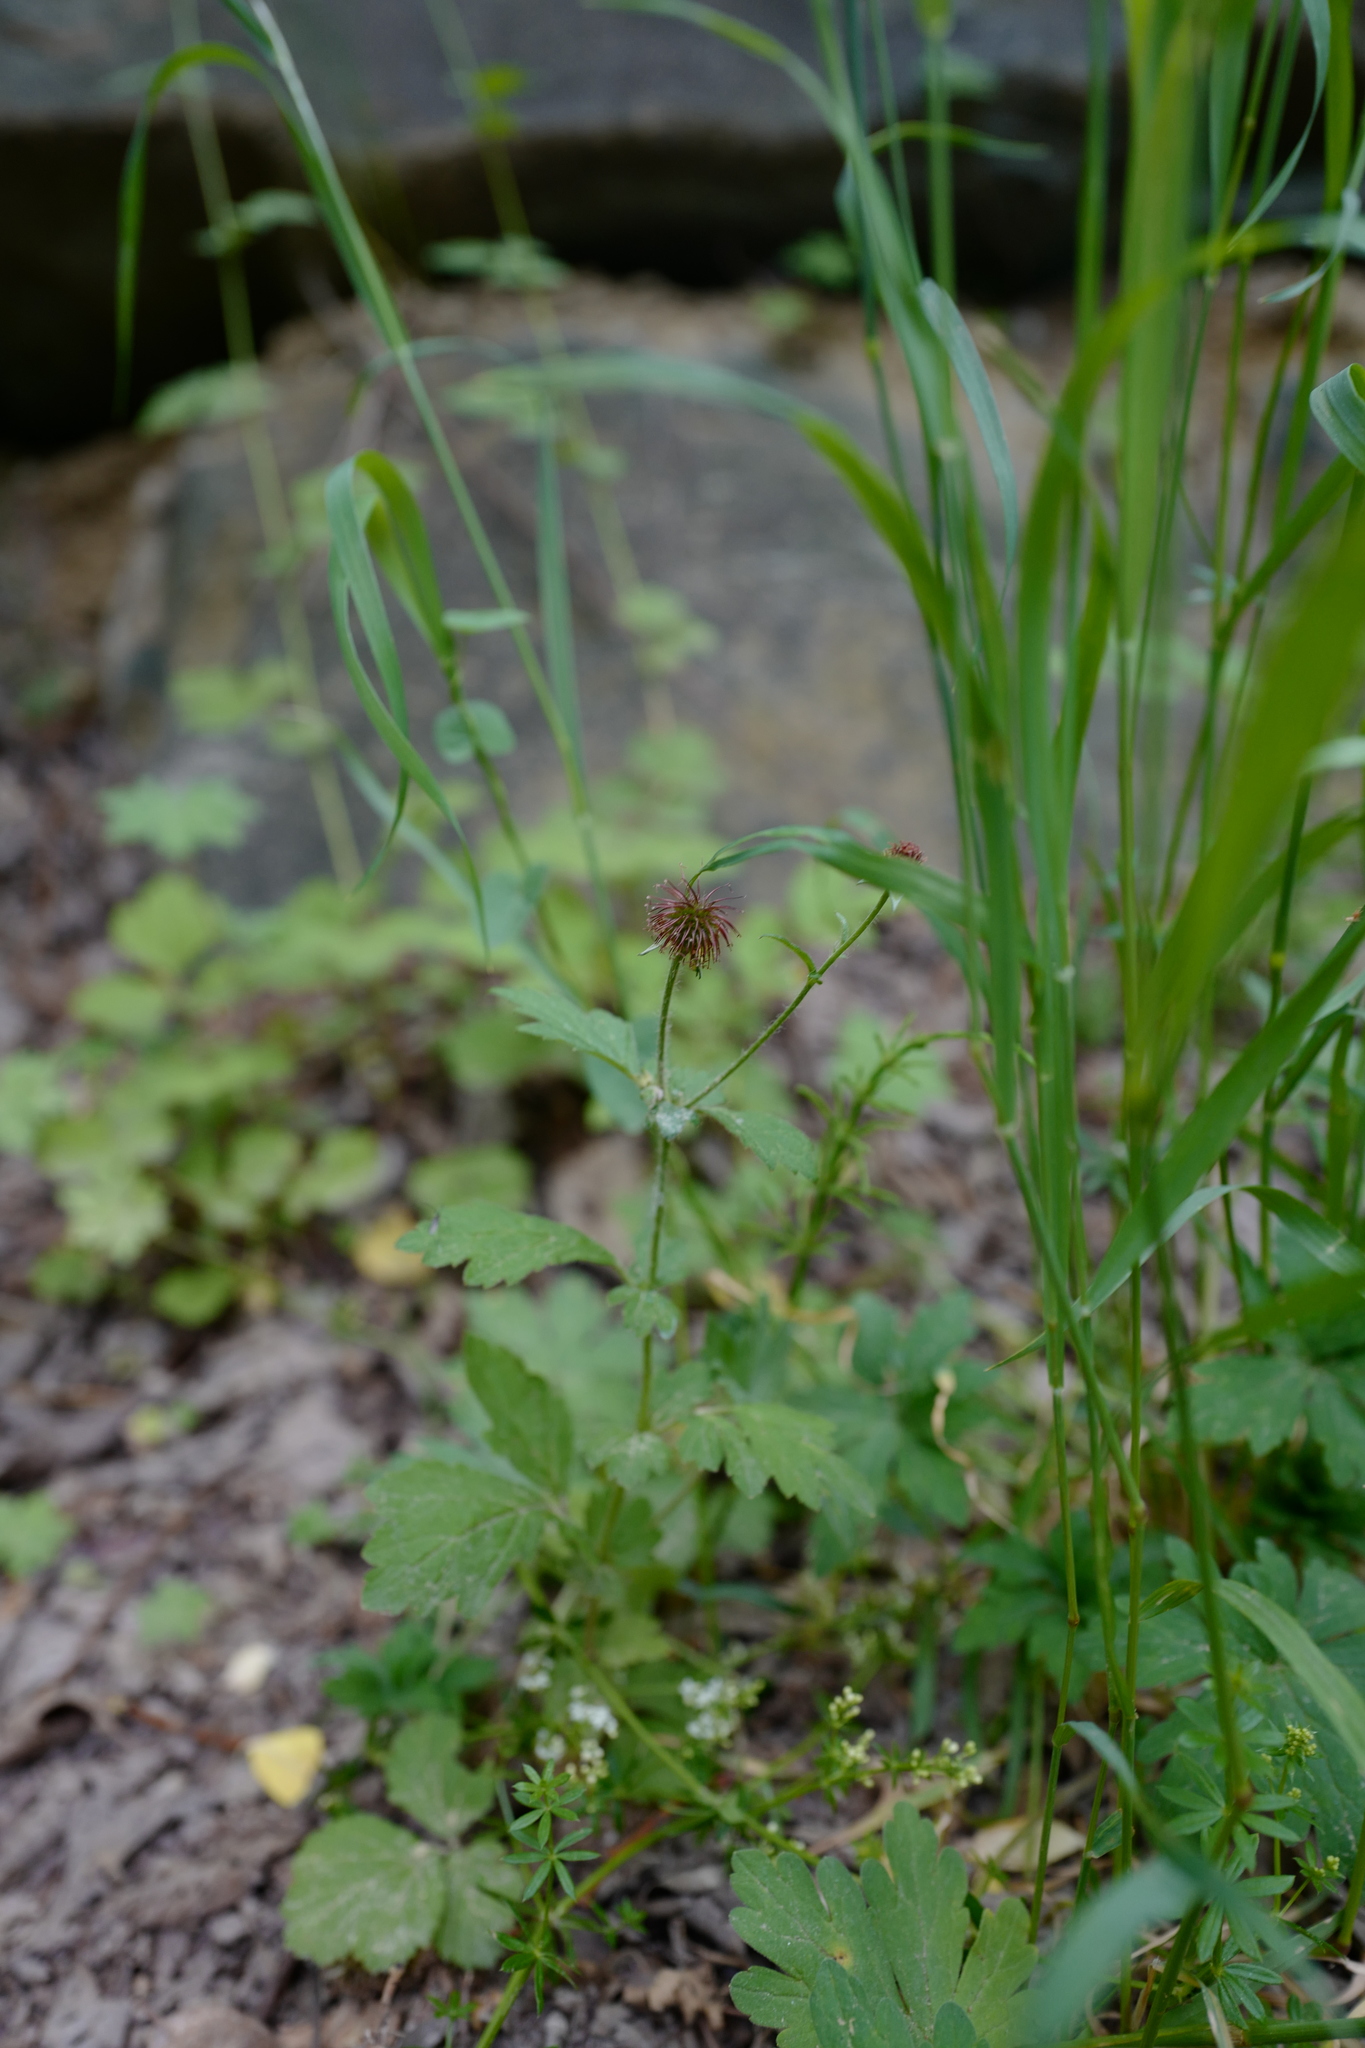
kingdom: Plantae
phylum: Tracheophyta
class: Magnoliopsida
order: Rosales
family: Rosaceae
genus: Geum
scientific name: Geum urbanum
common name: Wood avens
